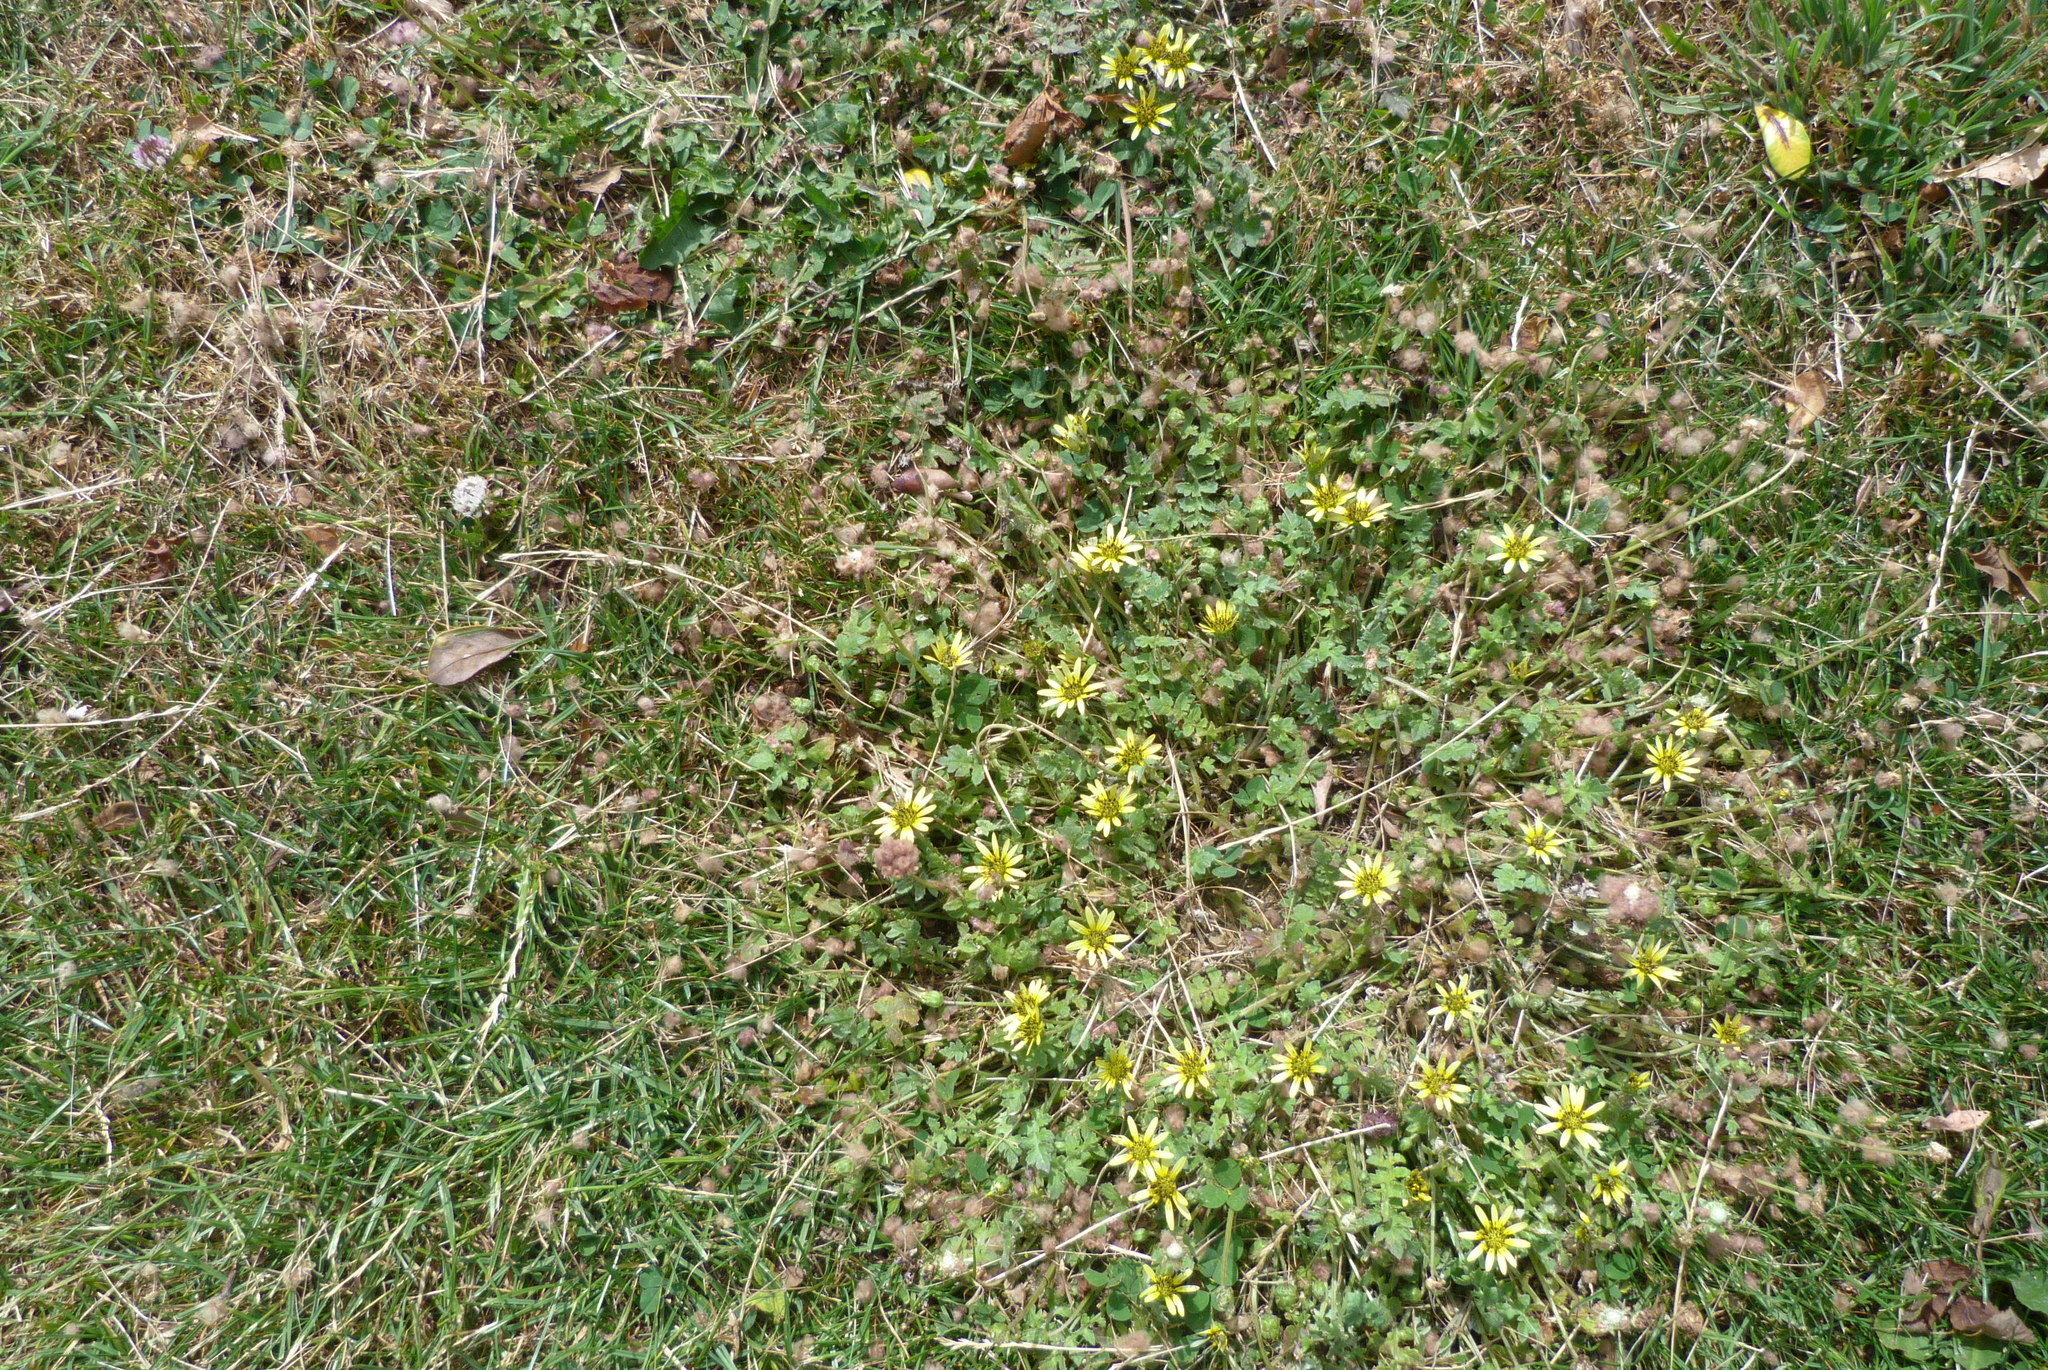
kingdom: Plantae
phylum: Tracheophyta
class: Magnoliopsida
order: Asterales
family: Asteraceae
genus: Arctotheca
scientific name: Arctotheca calendula
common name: Capeweed
